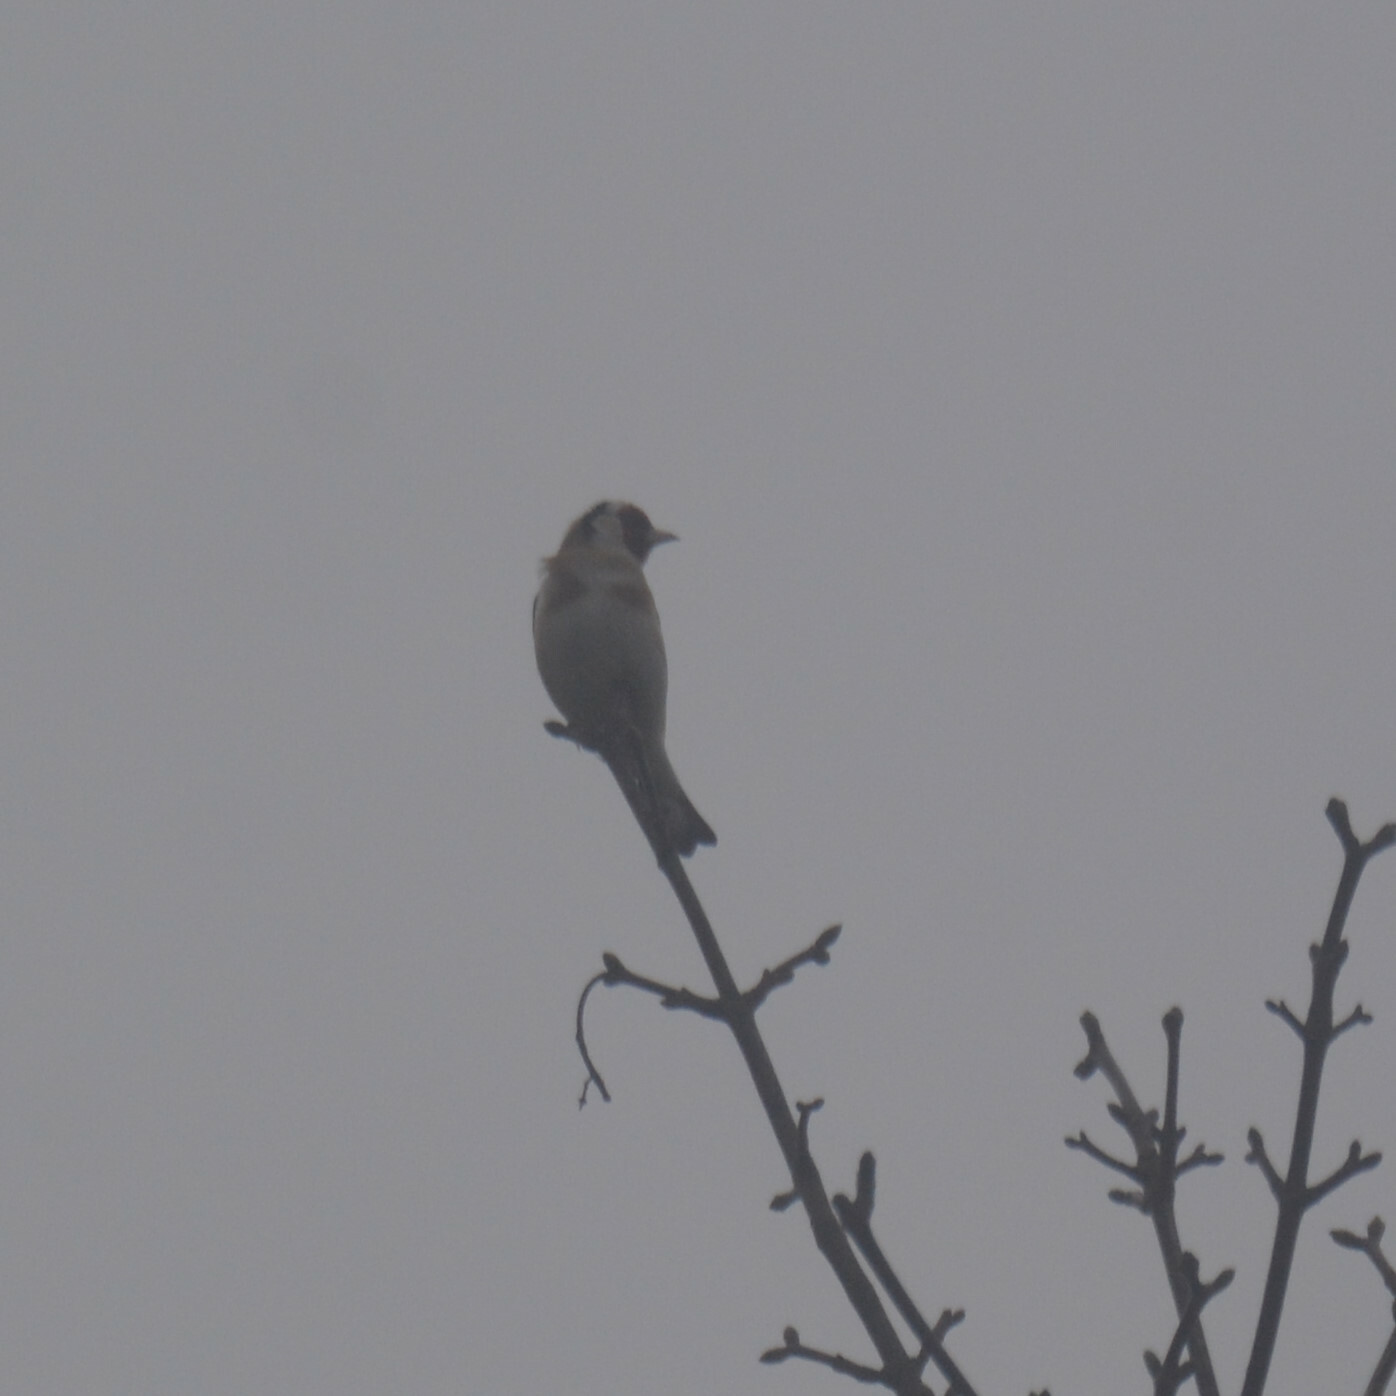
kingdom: Animalia
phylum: Chordata
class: Aves
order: Passeriformes
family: Fringillidae
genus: Carduelis
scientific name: Carduelis carduelis
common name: European goldfinch
